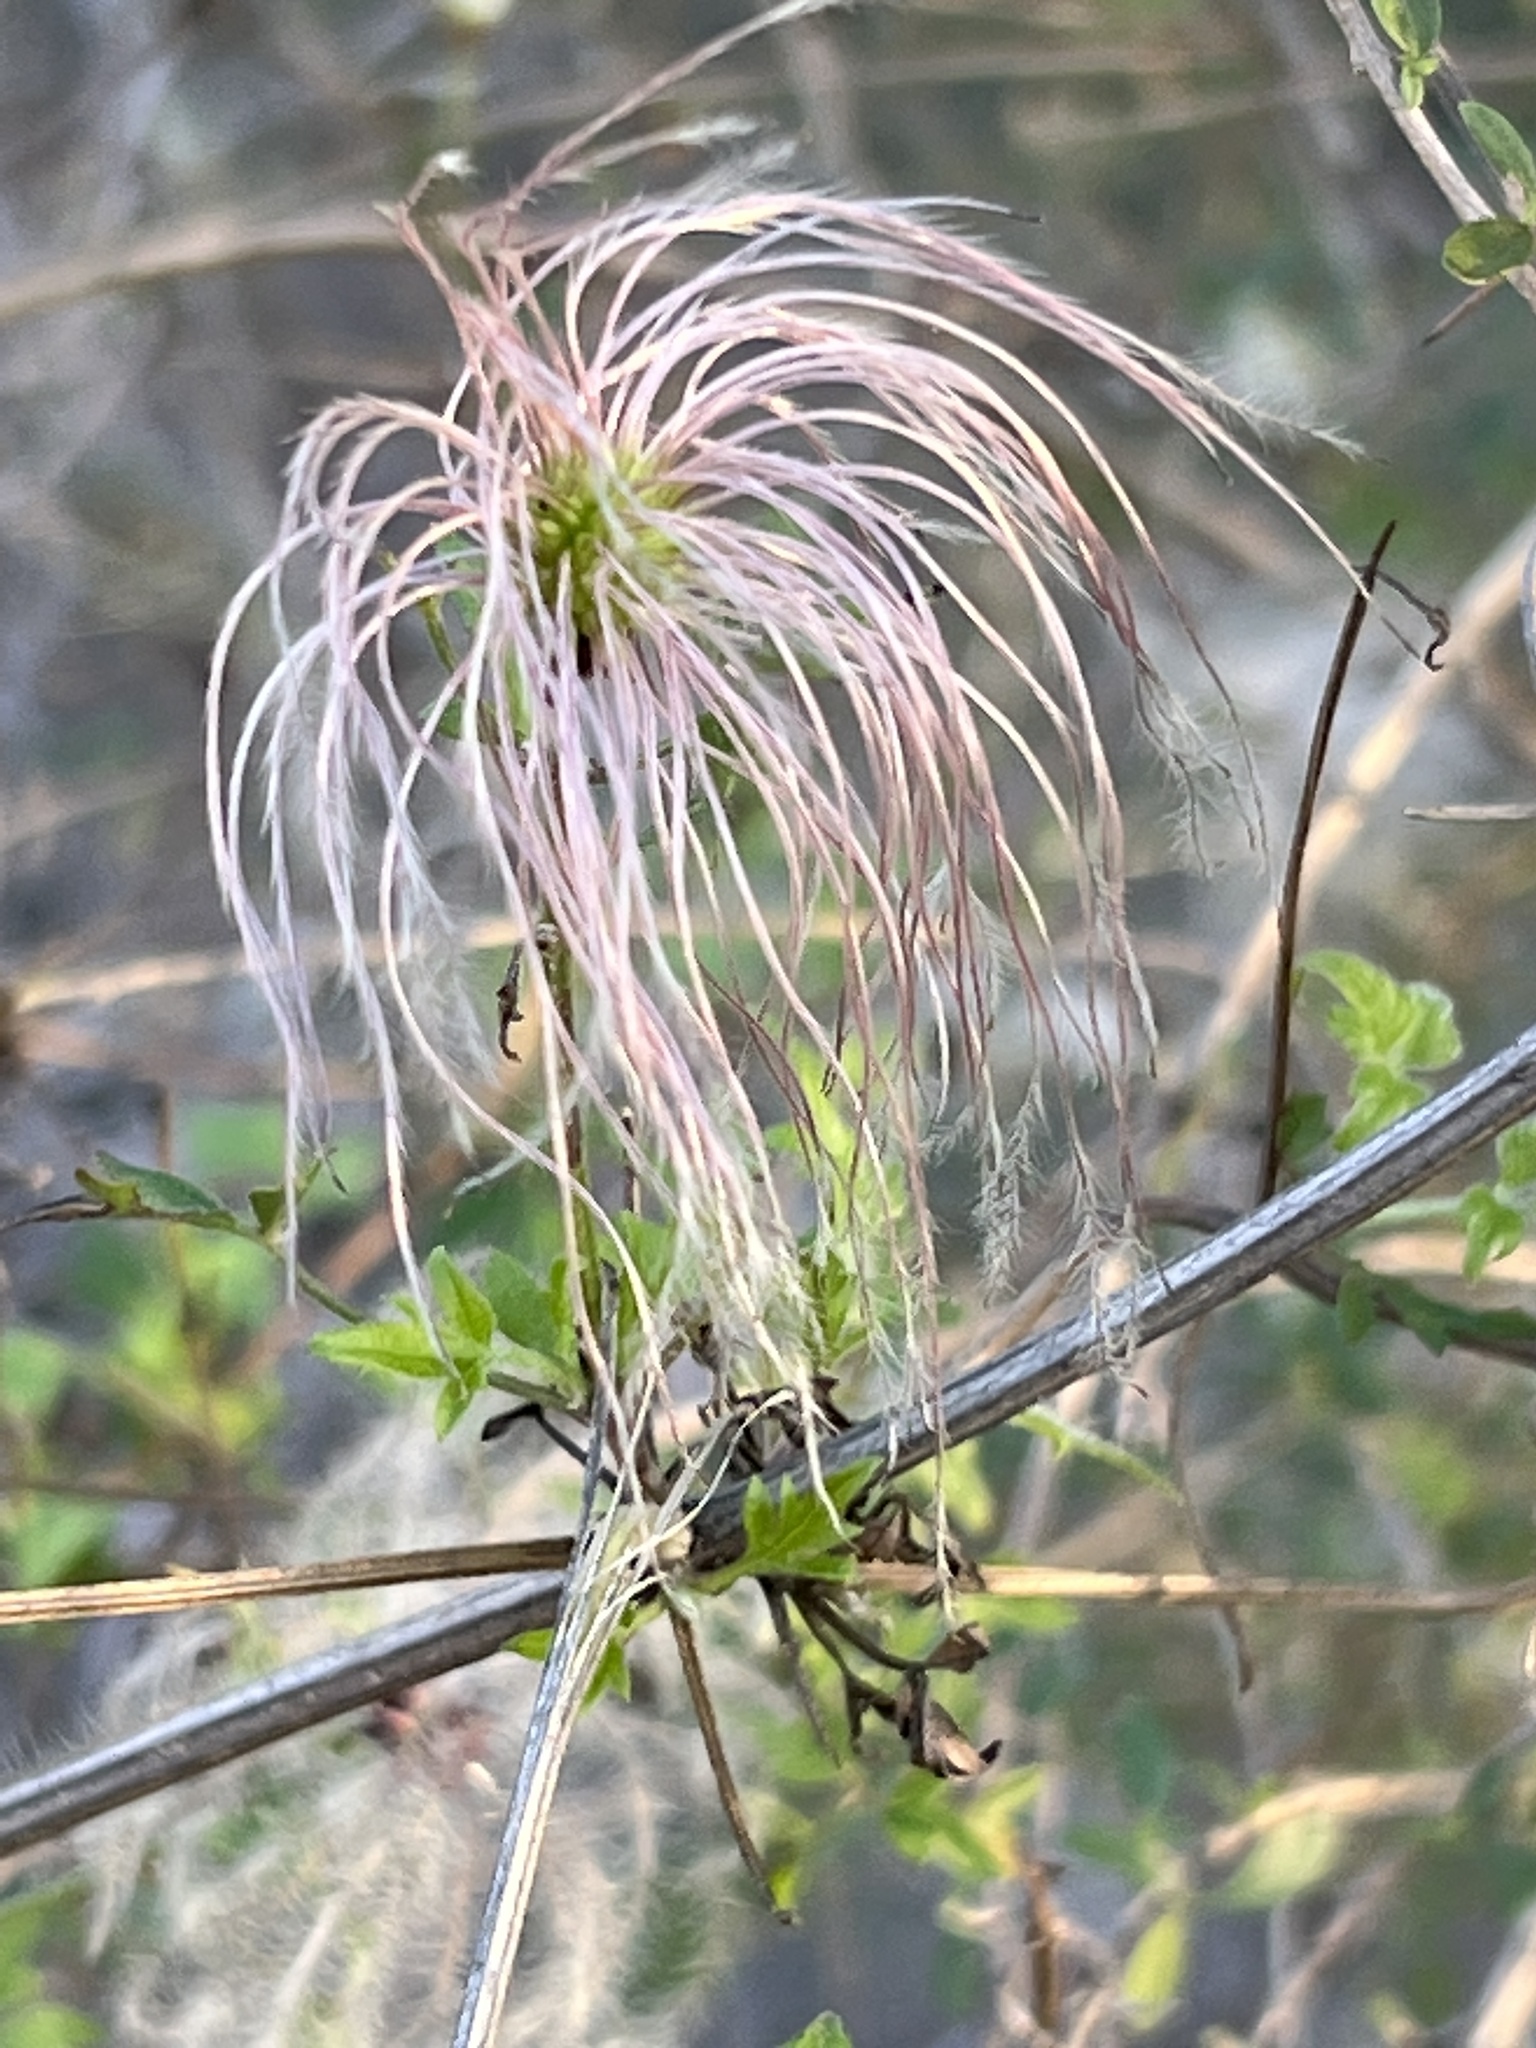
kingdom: Plantae
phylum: Tracheophyta
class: Magnoliopsida
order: Ranunculales
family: Ranunculaceae
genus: Clematis
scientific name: Clematis drummondii
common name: Texas virgin's bower
